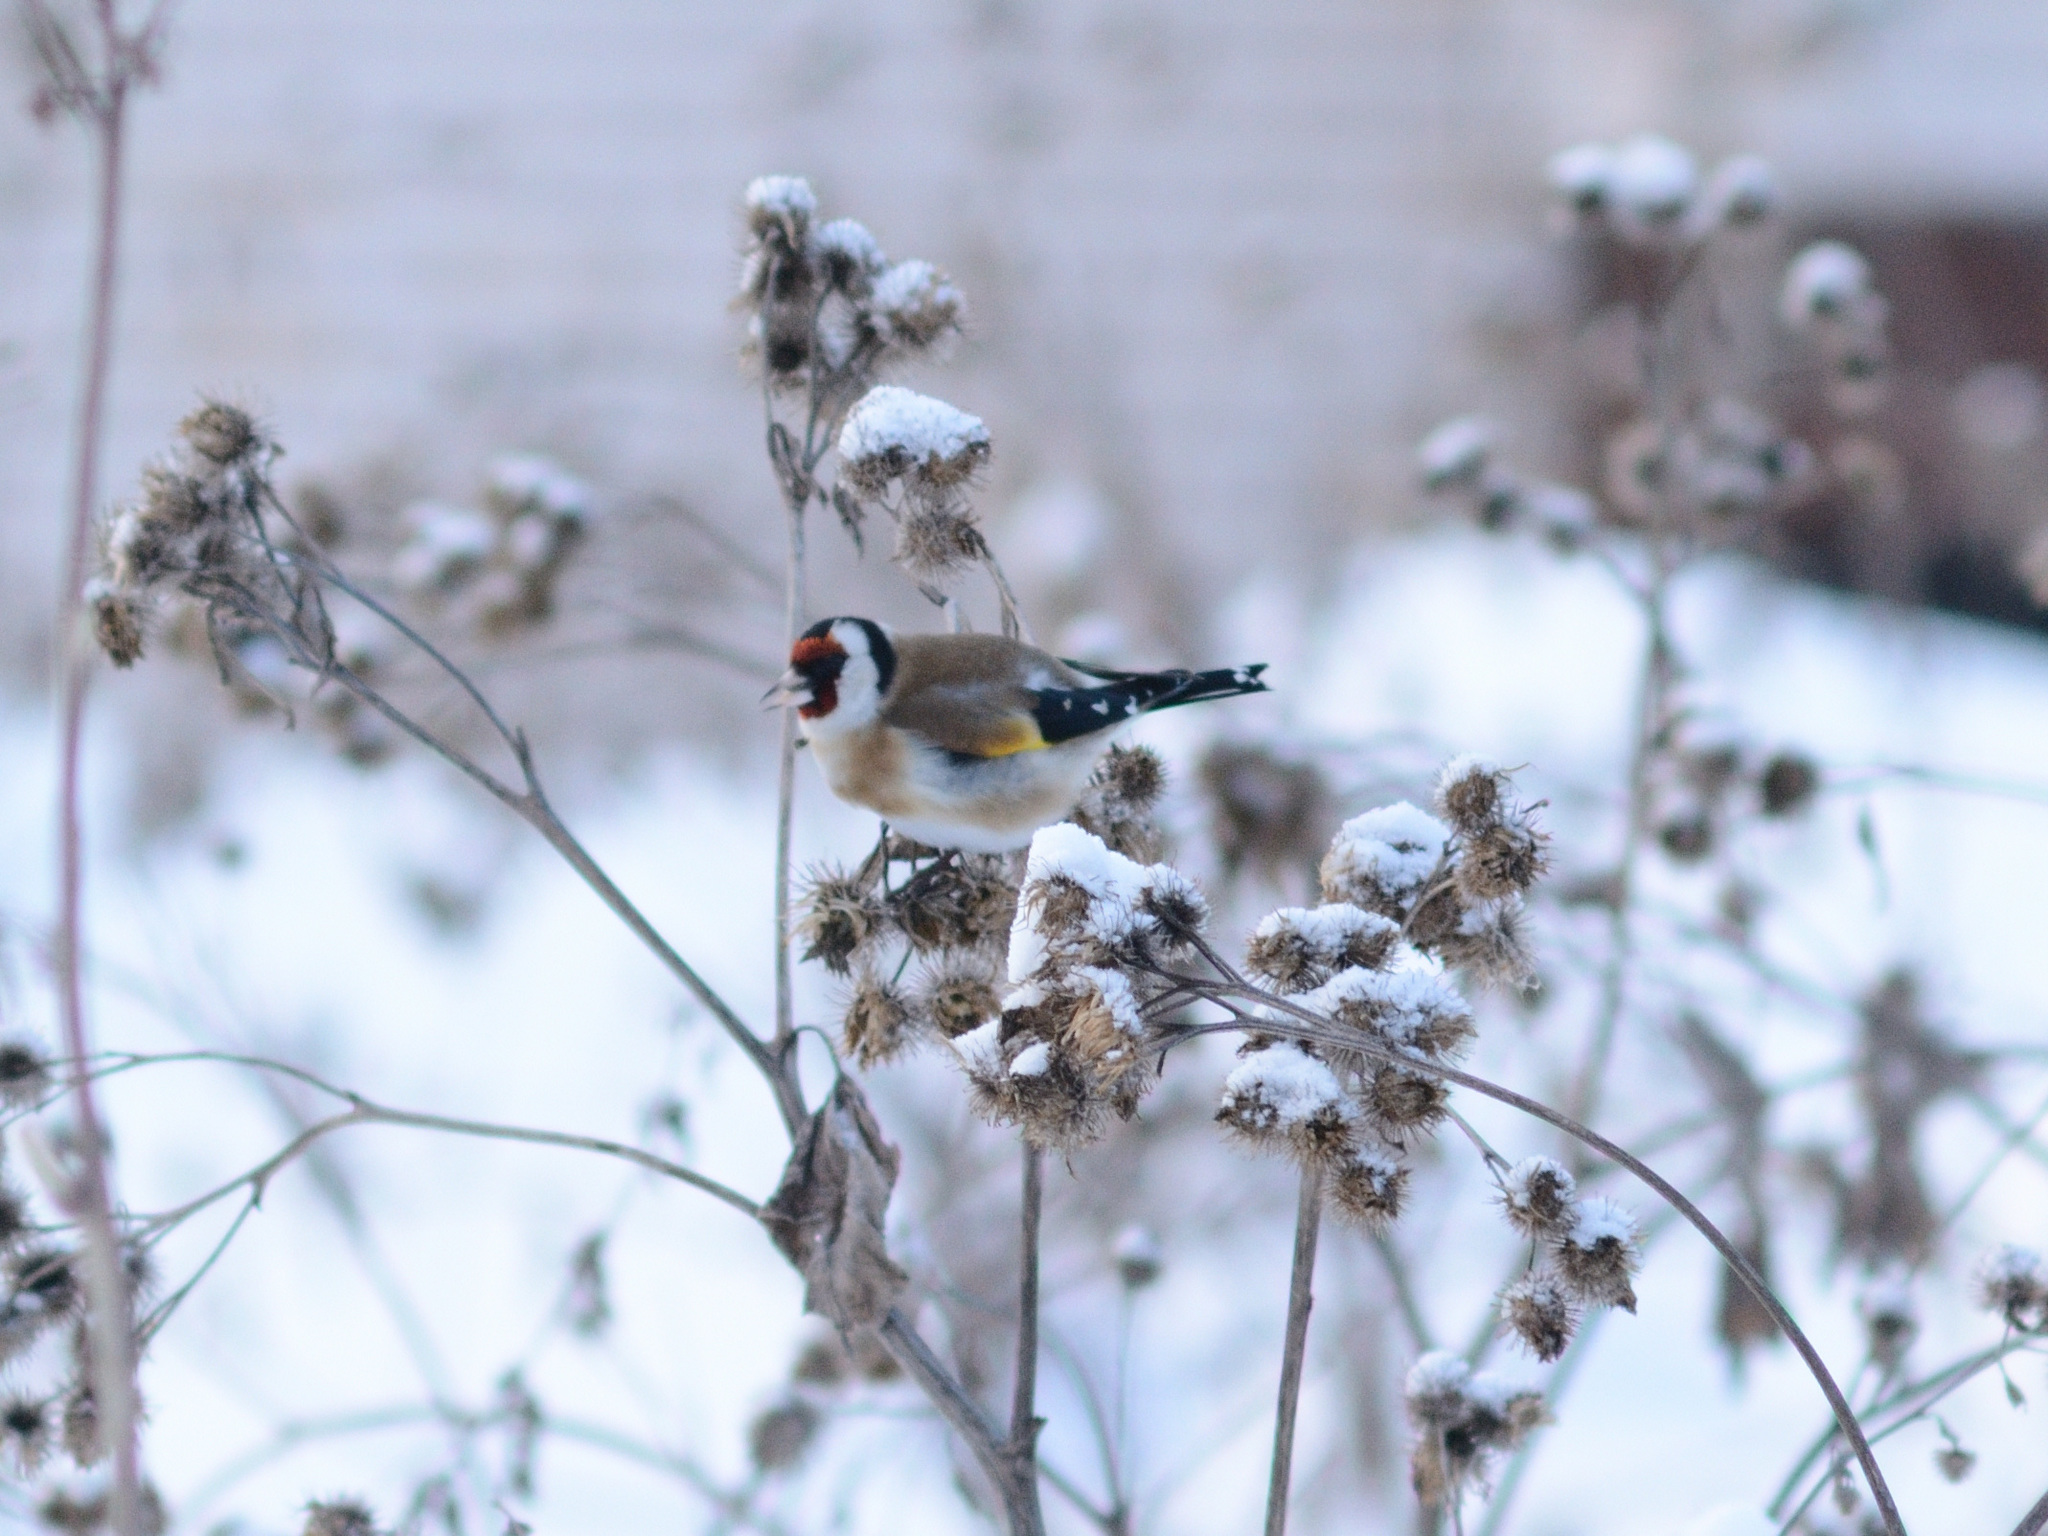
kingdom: Animalia
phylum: Chordata
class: Aves
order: Passeriformes
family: Fringillidae
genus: Carduelis
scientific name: Carduelis carduelis
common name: European goldfinch
